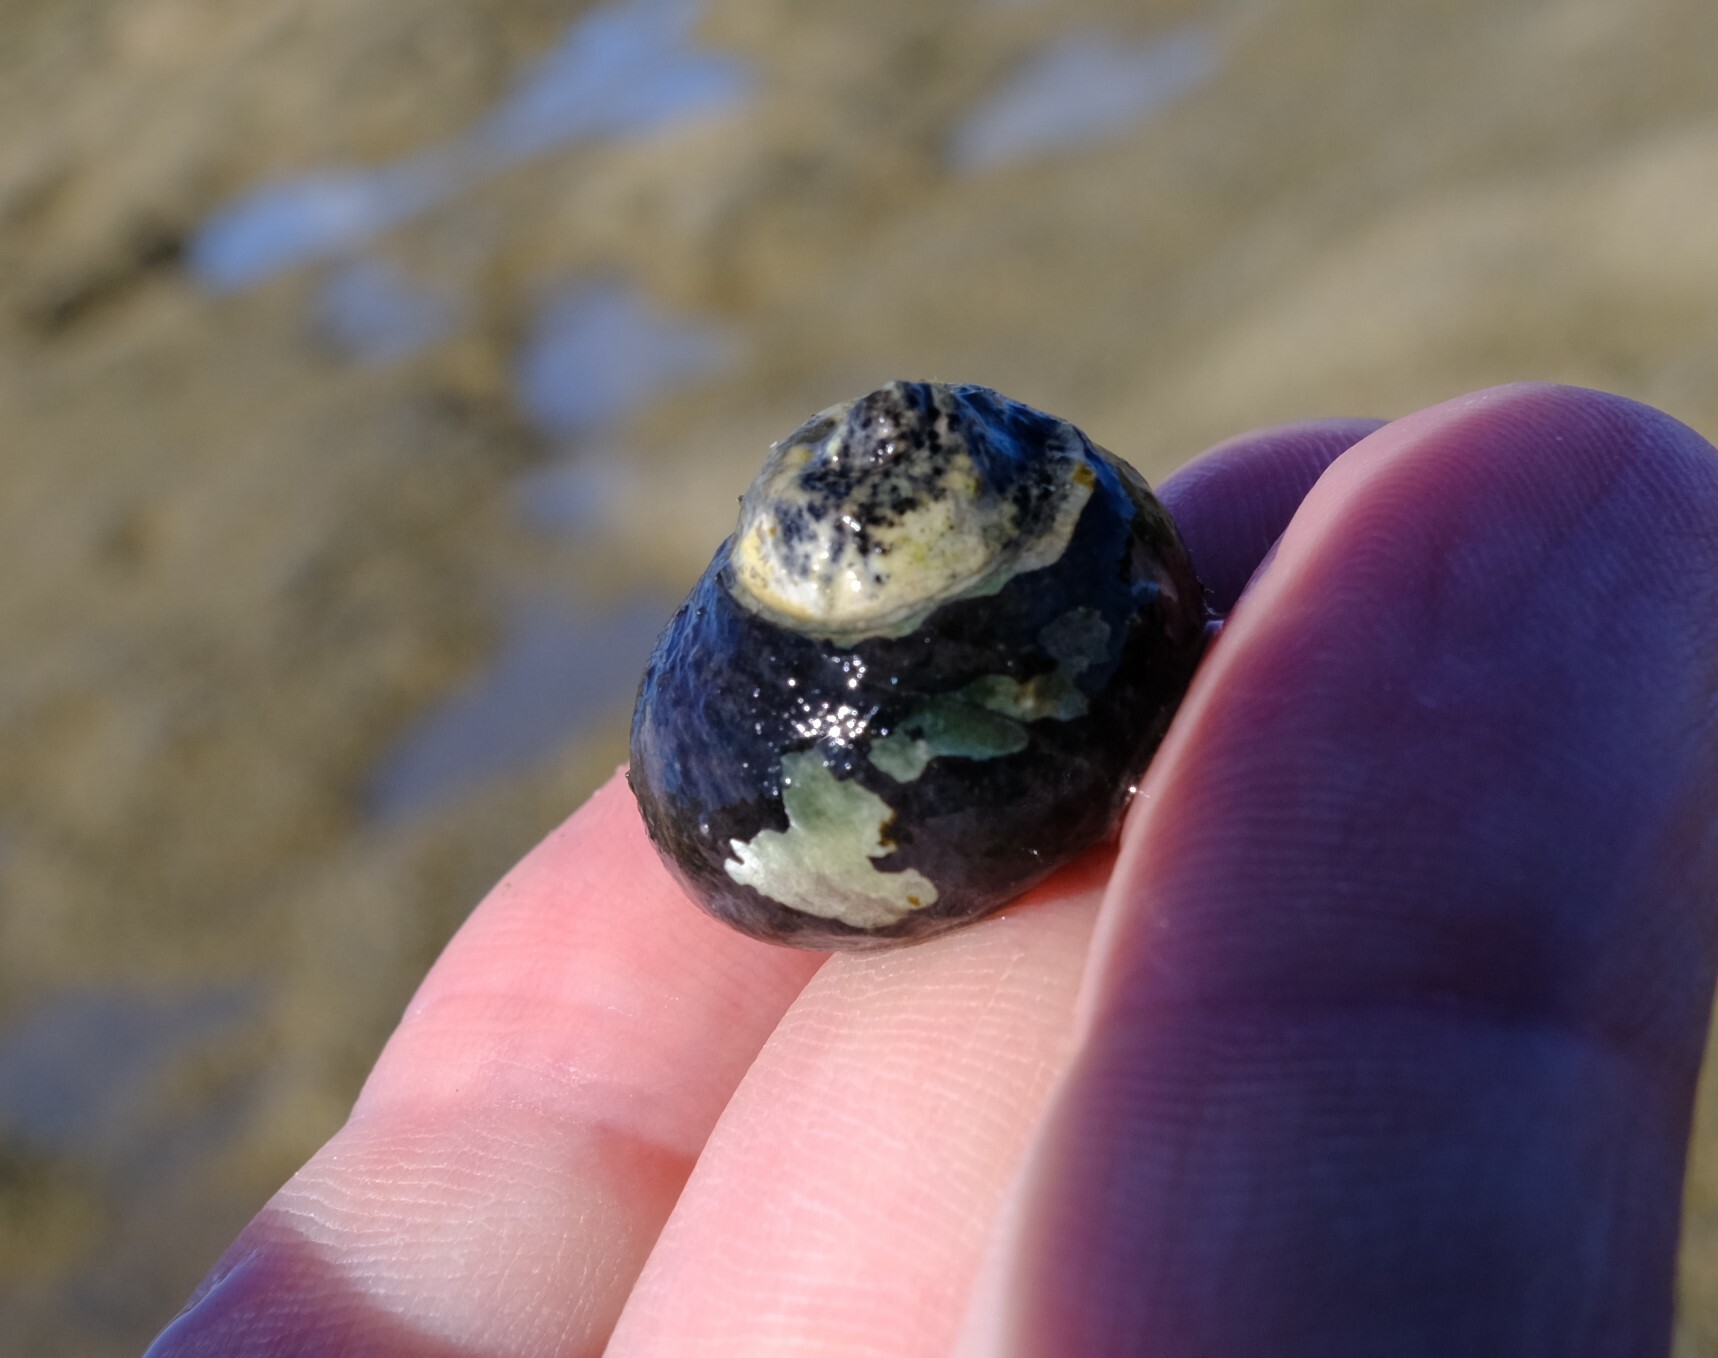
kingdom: Animalia
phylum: Mollusca
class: Gastropoda
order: Trochida
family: Trochidae
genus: Austrocochlea
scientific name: Austrocochlea rudis
